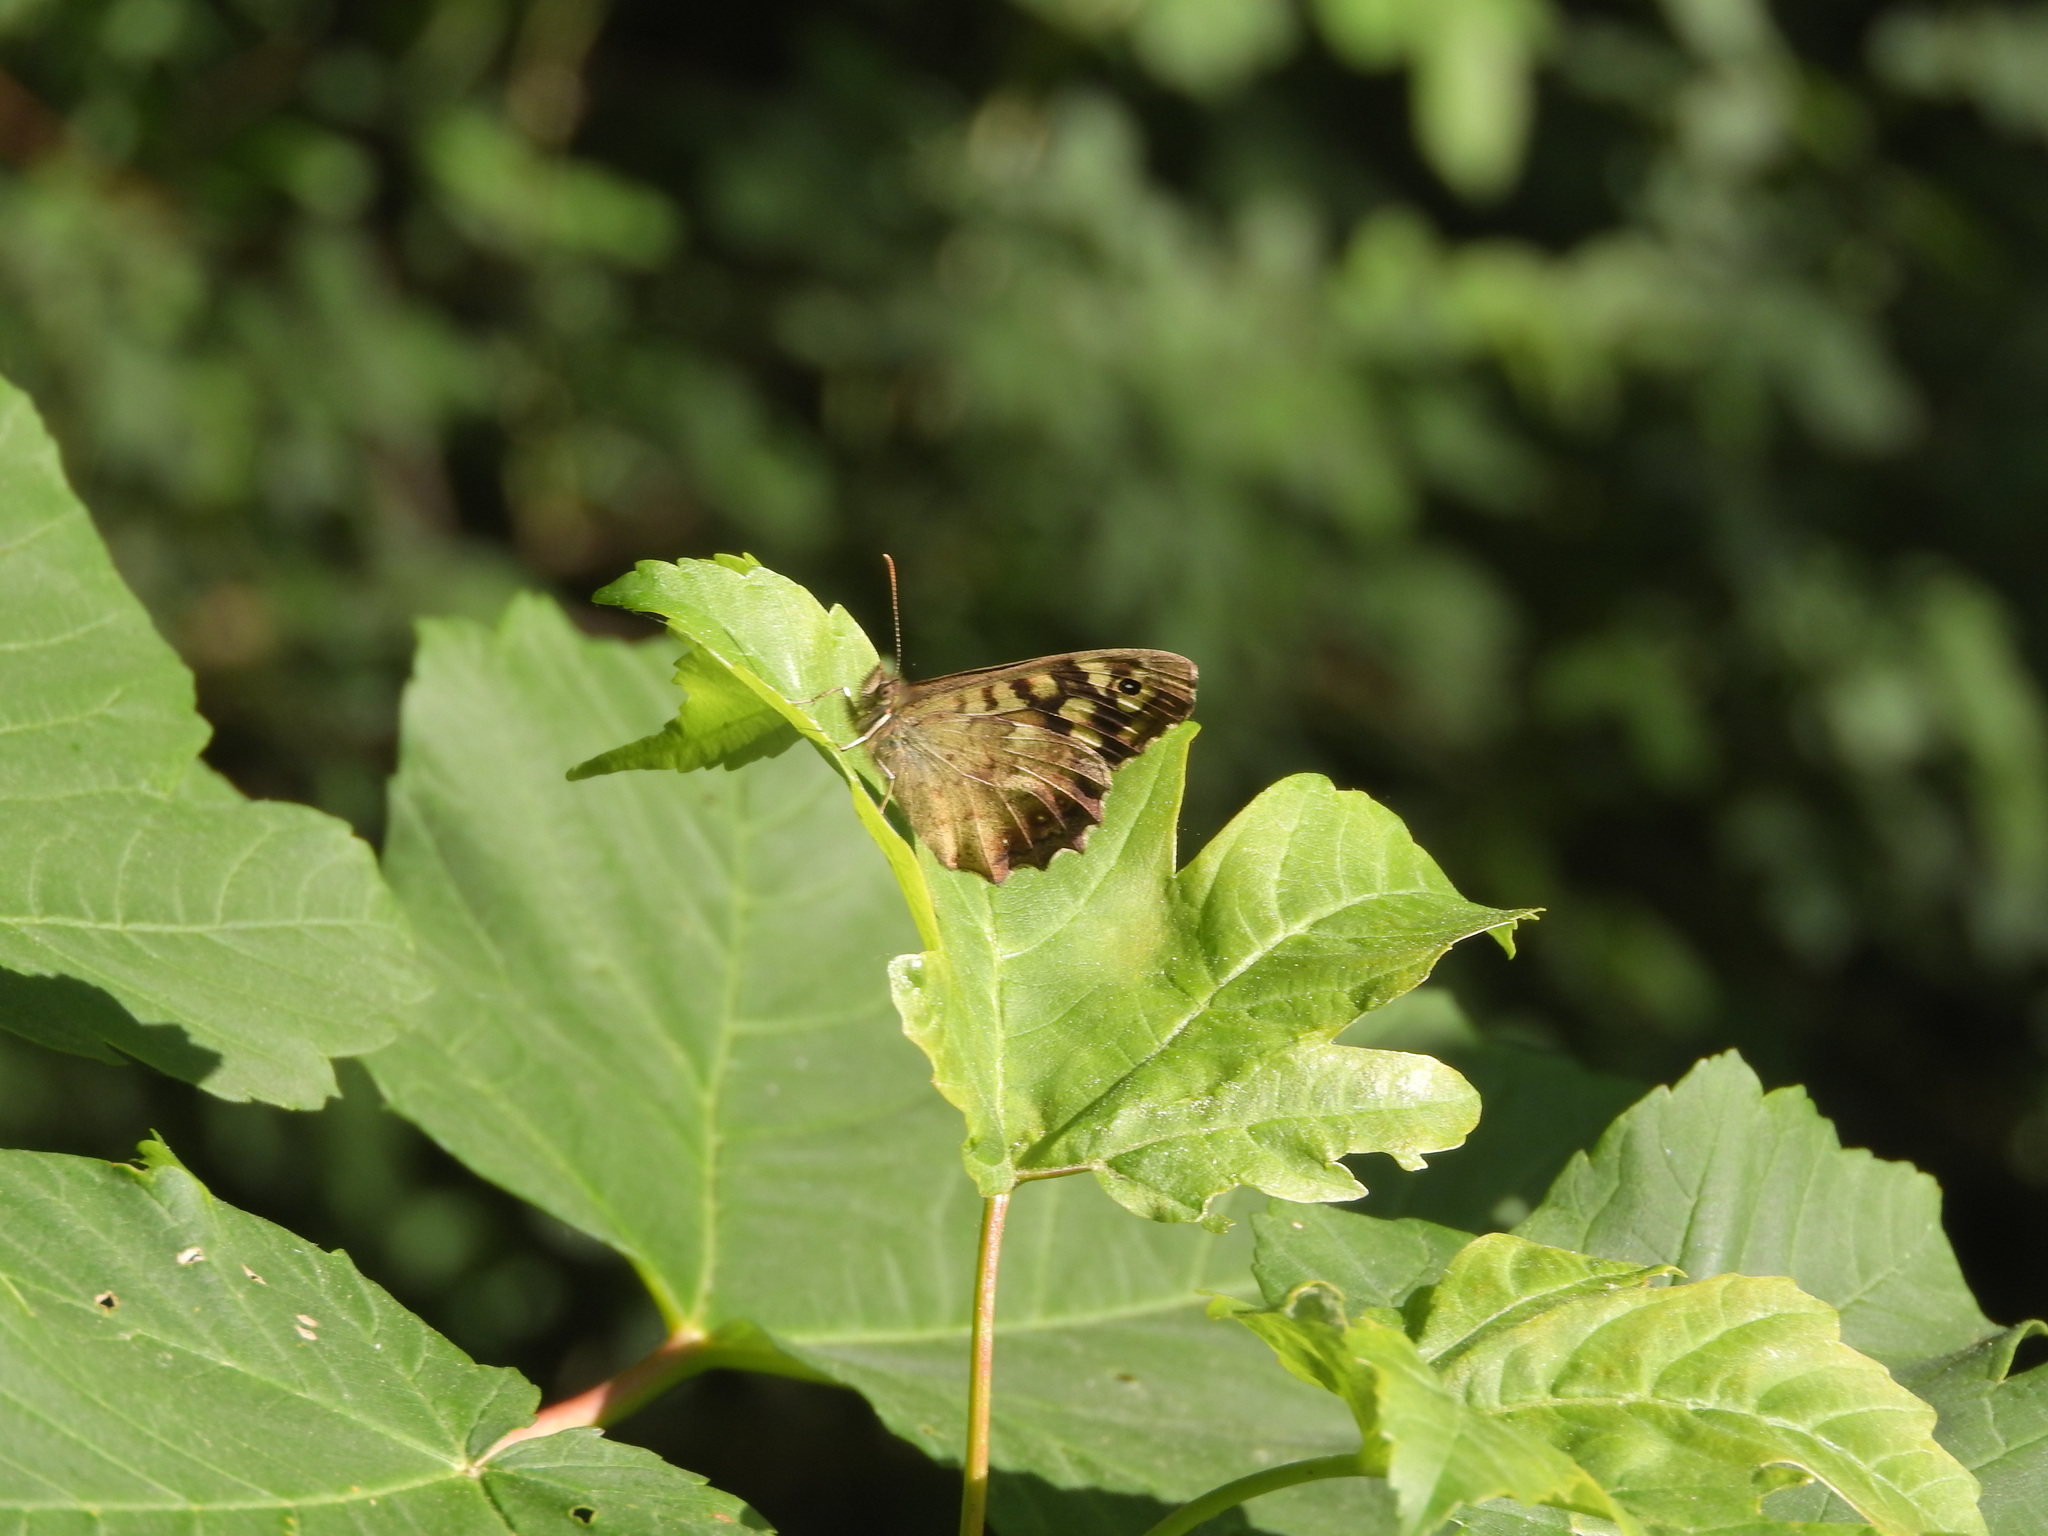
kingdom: Animalia
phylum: Arthropoda
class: Insecta
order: Lepidoptera
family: Nymphalidae
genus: Pararge
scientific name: Pararge aegeria
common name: Speckled wood
